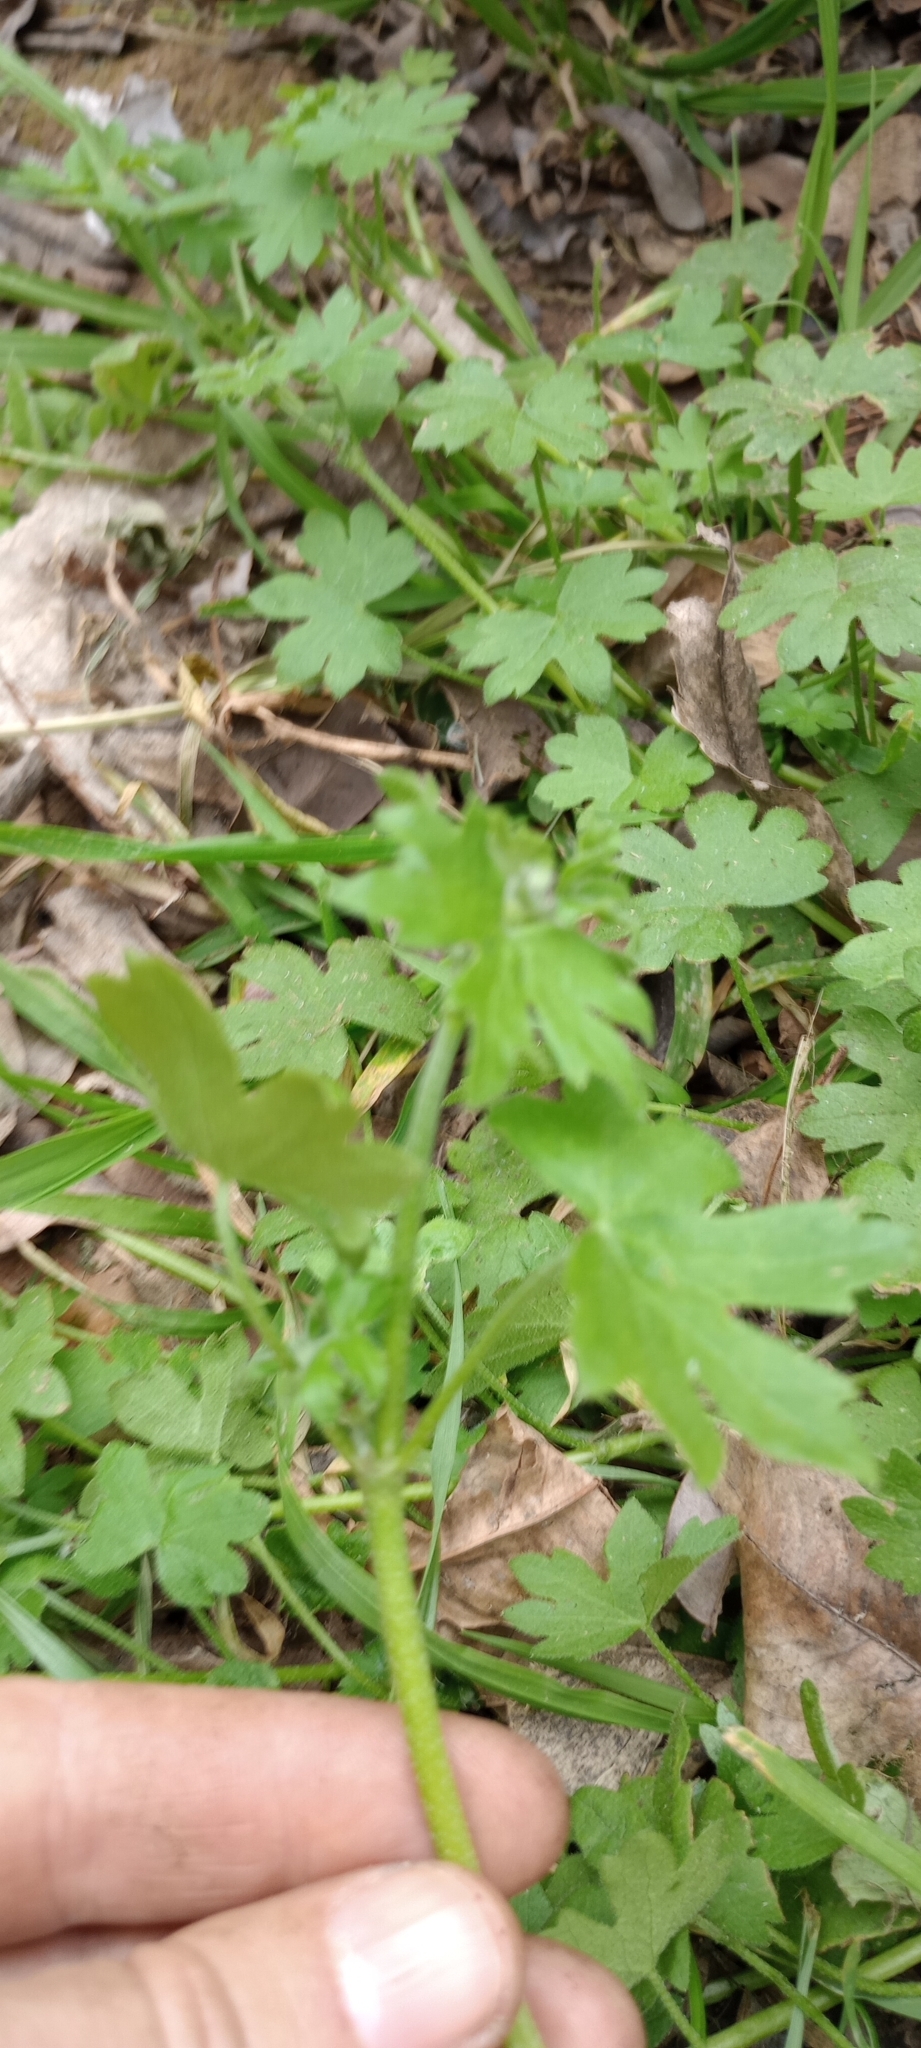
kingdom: Plantae
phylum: Tracheophyta
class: Magnoliopsida
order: Apiales
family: Apiaceae
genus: Bowlesia
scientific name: Bowlesia incana
